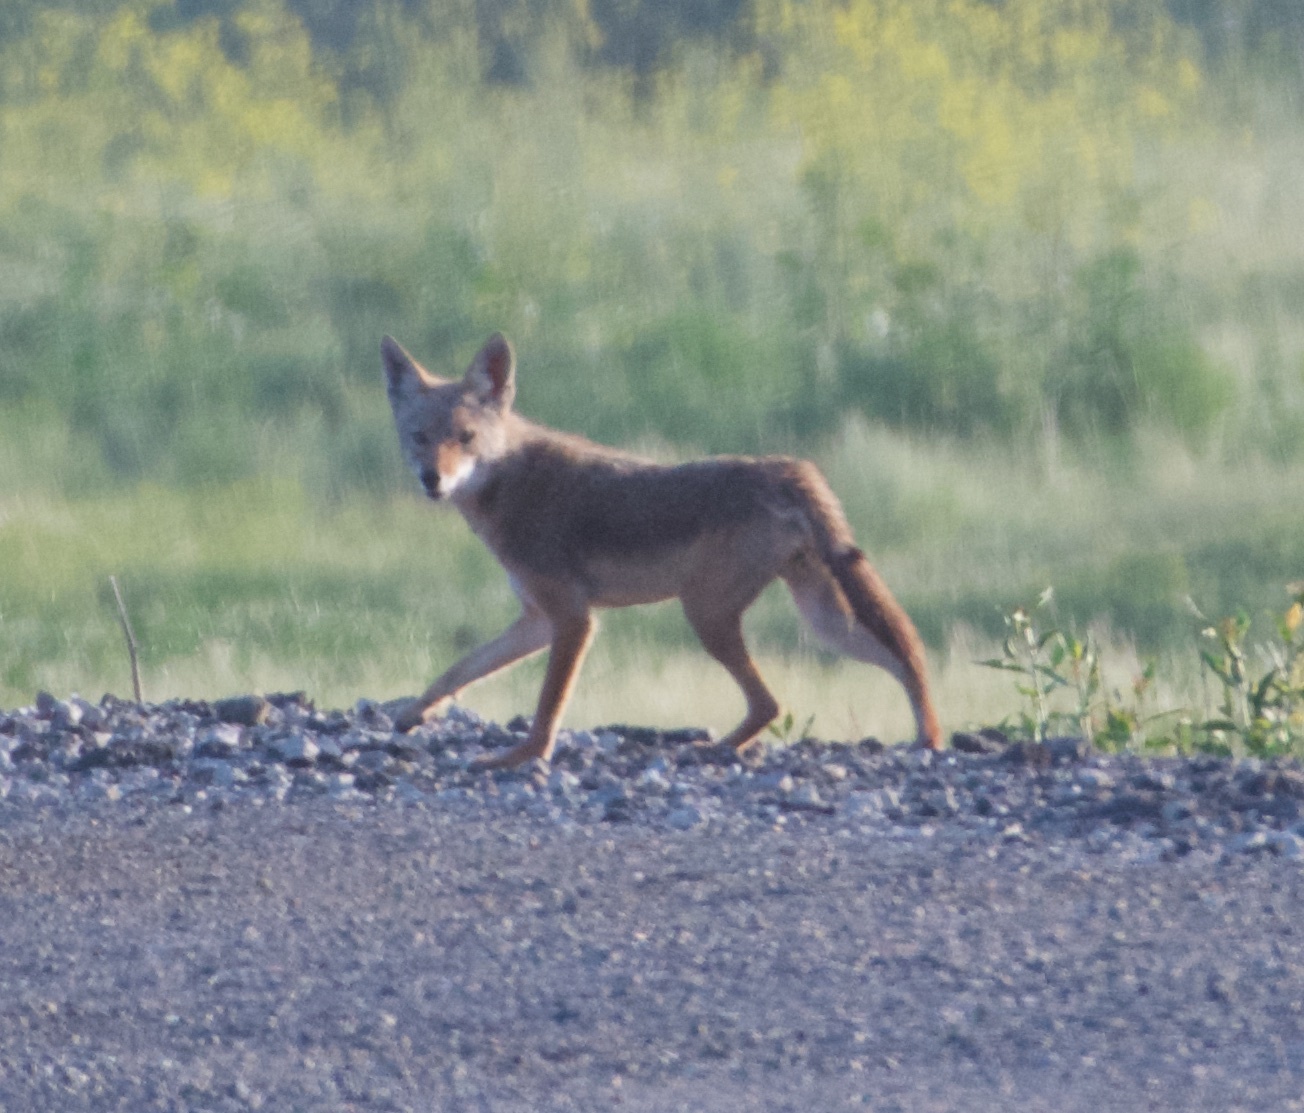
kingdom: Animalia
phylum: Chordata
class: Mammalia
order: Carnivora
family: Canidae
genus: Canis
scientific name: Canis latrans
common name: Coyote
